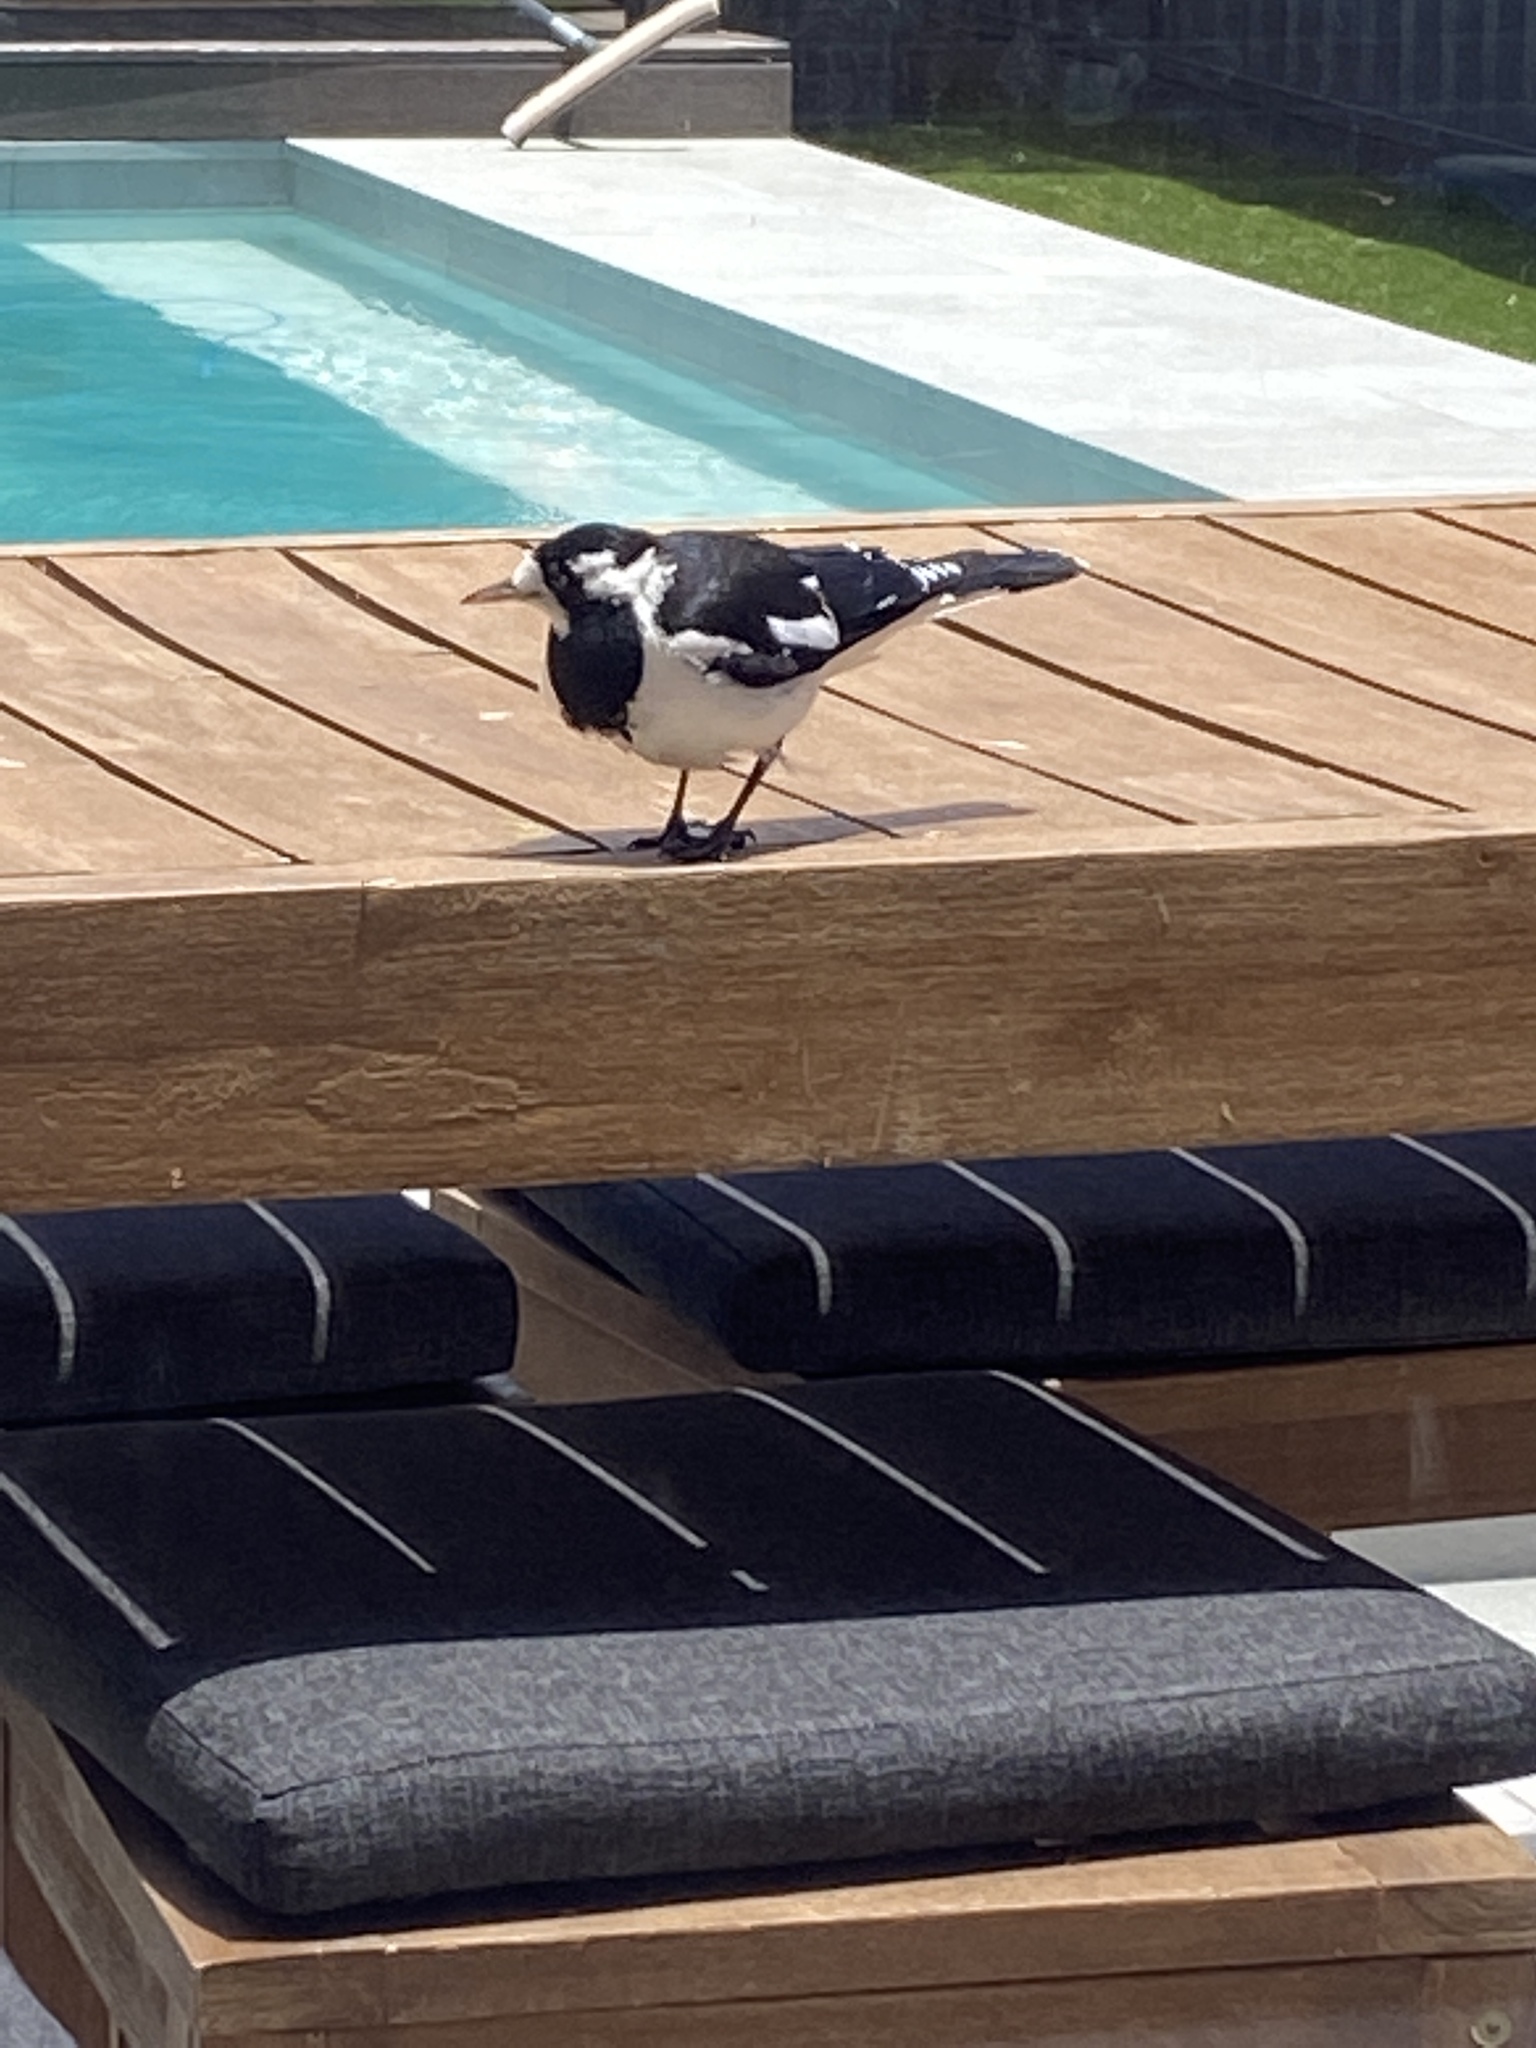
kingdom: Animalia
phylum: Chordata
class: Aves
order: Passeriformes
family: Monarchidae
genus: Grallina
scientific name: Grallina cyanoleuca
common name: Magpie-lark
